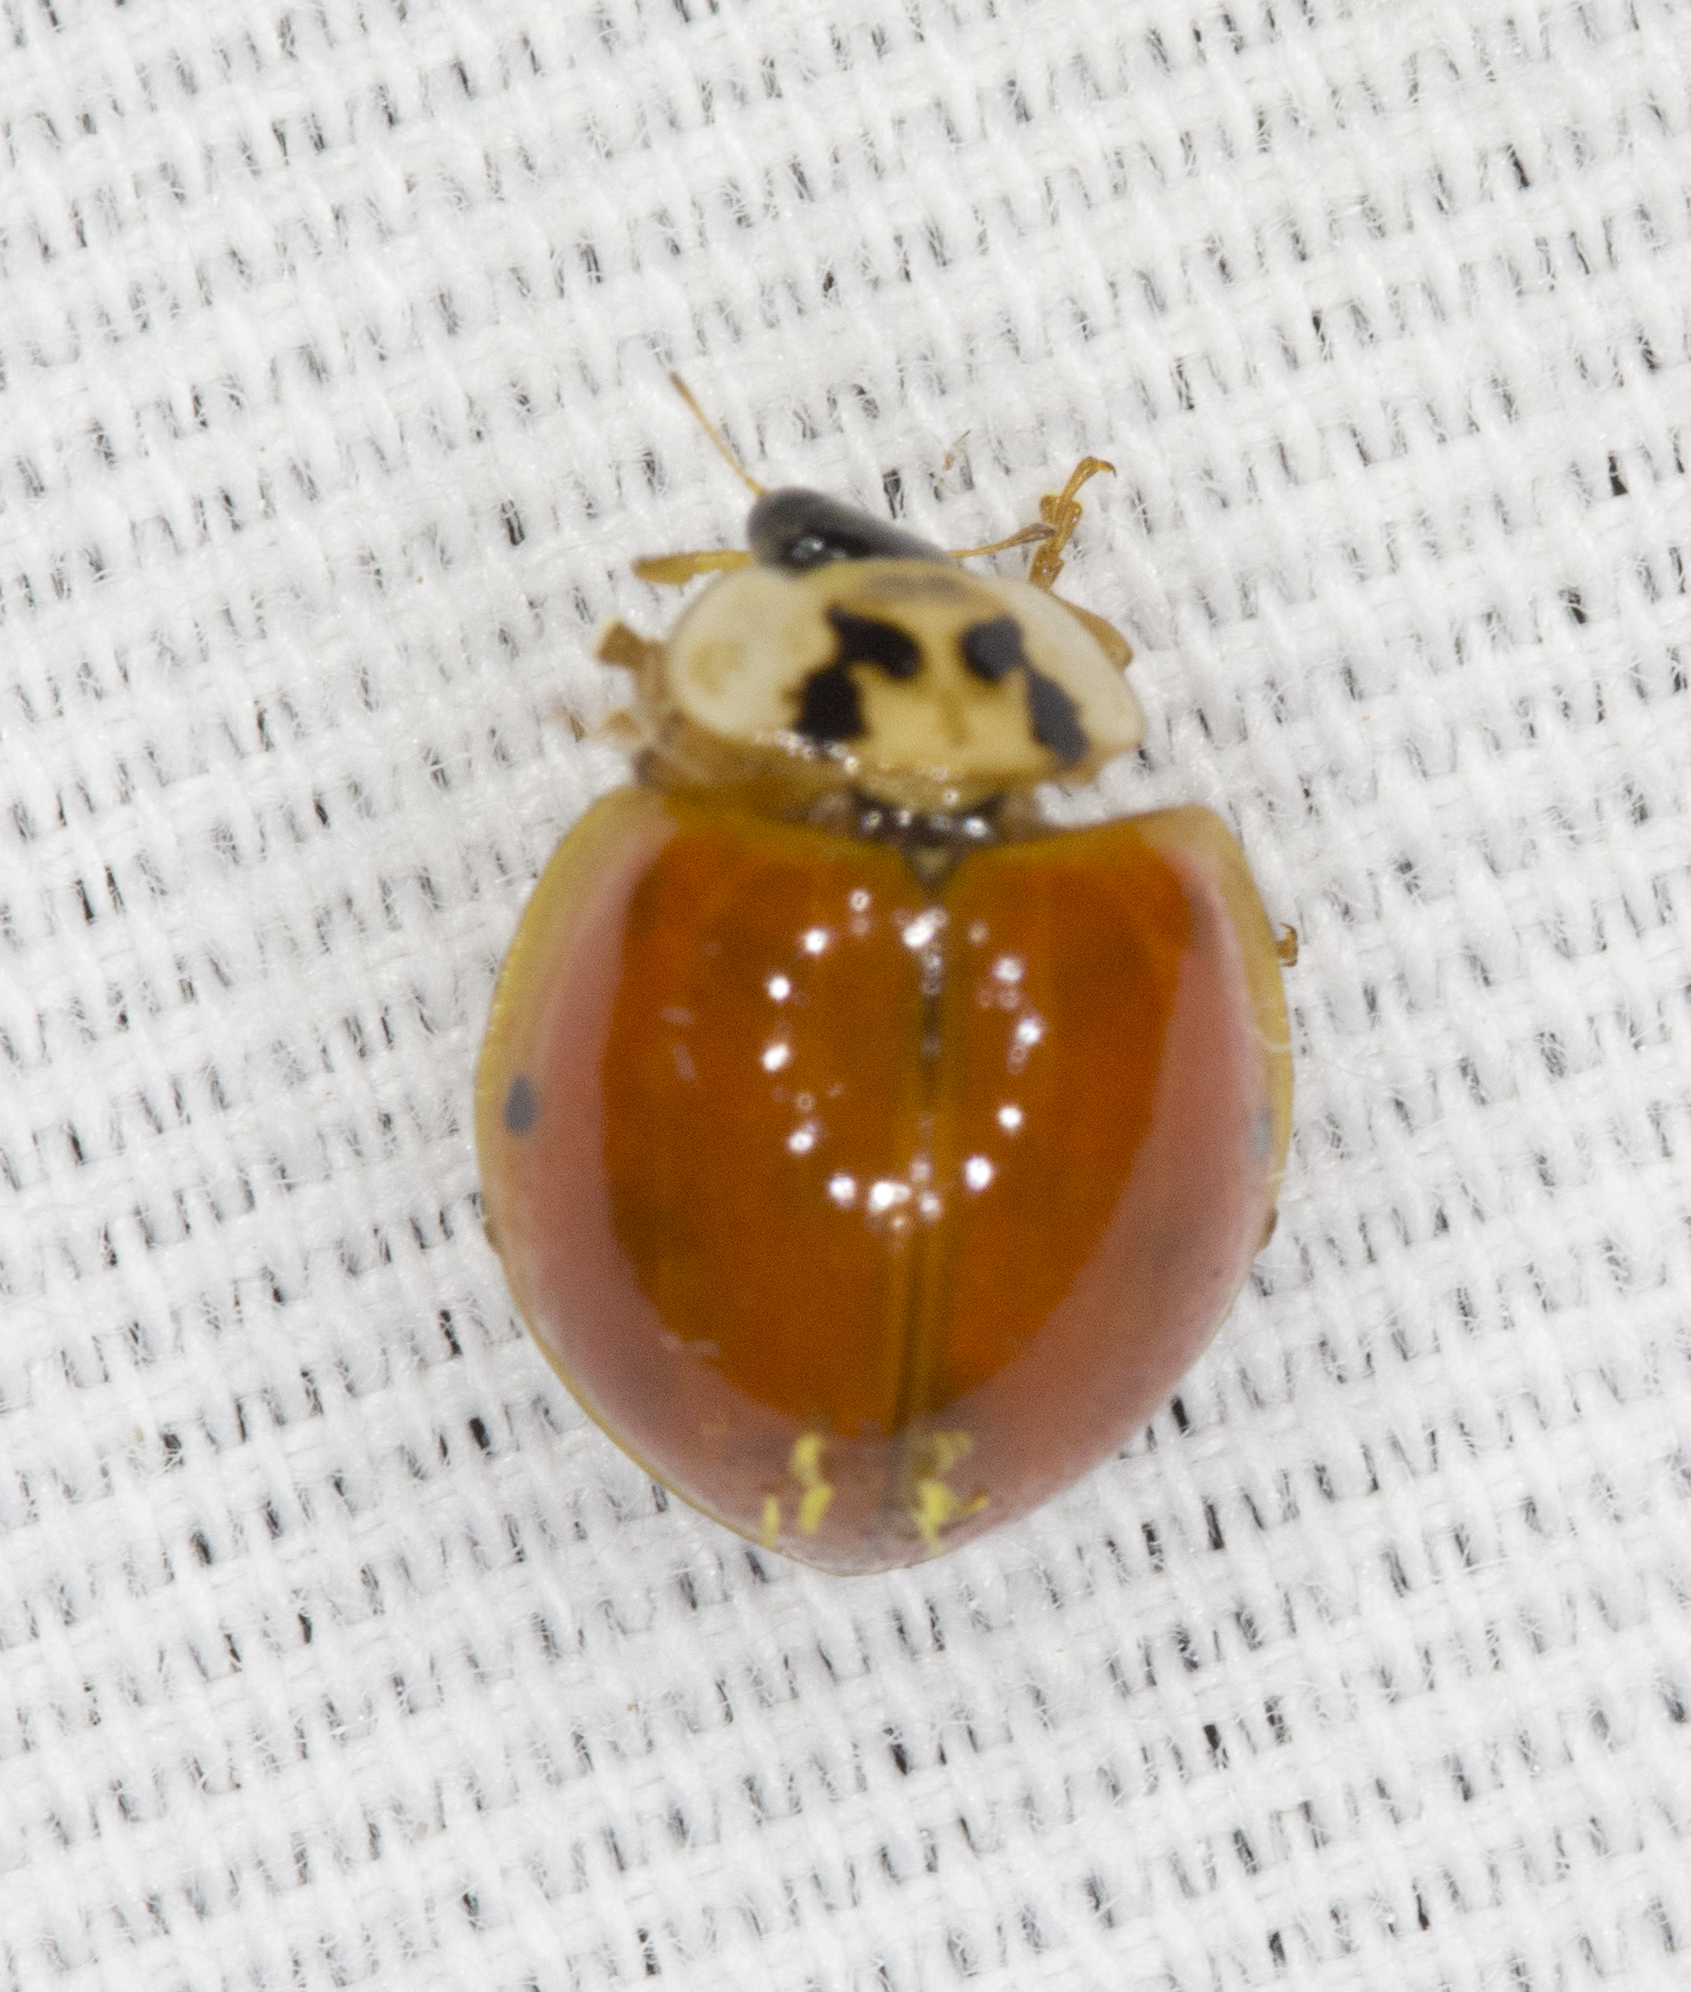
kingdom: Animalia
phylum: Arthropoda
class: Insecta
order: Coleoptera
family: Coccinellidae
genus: Harmonia
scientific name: Harmonia axyridis
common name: Harlequin ladybird
